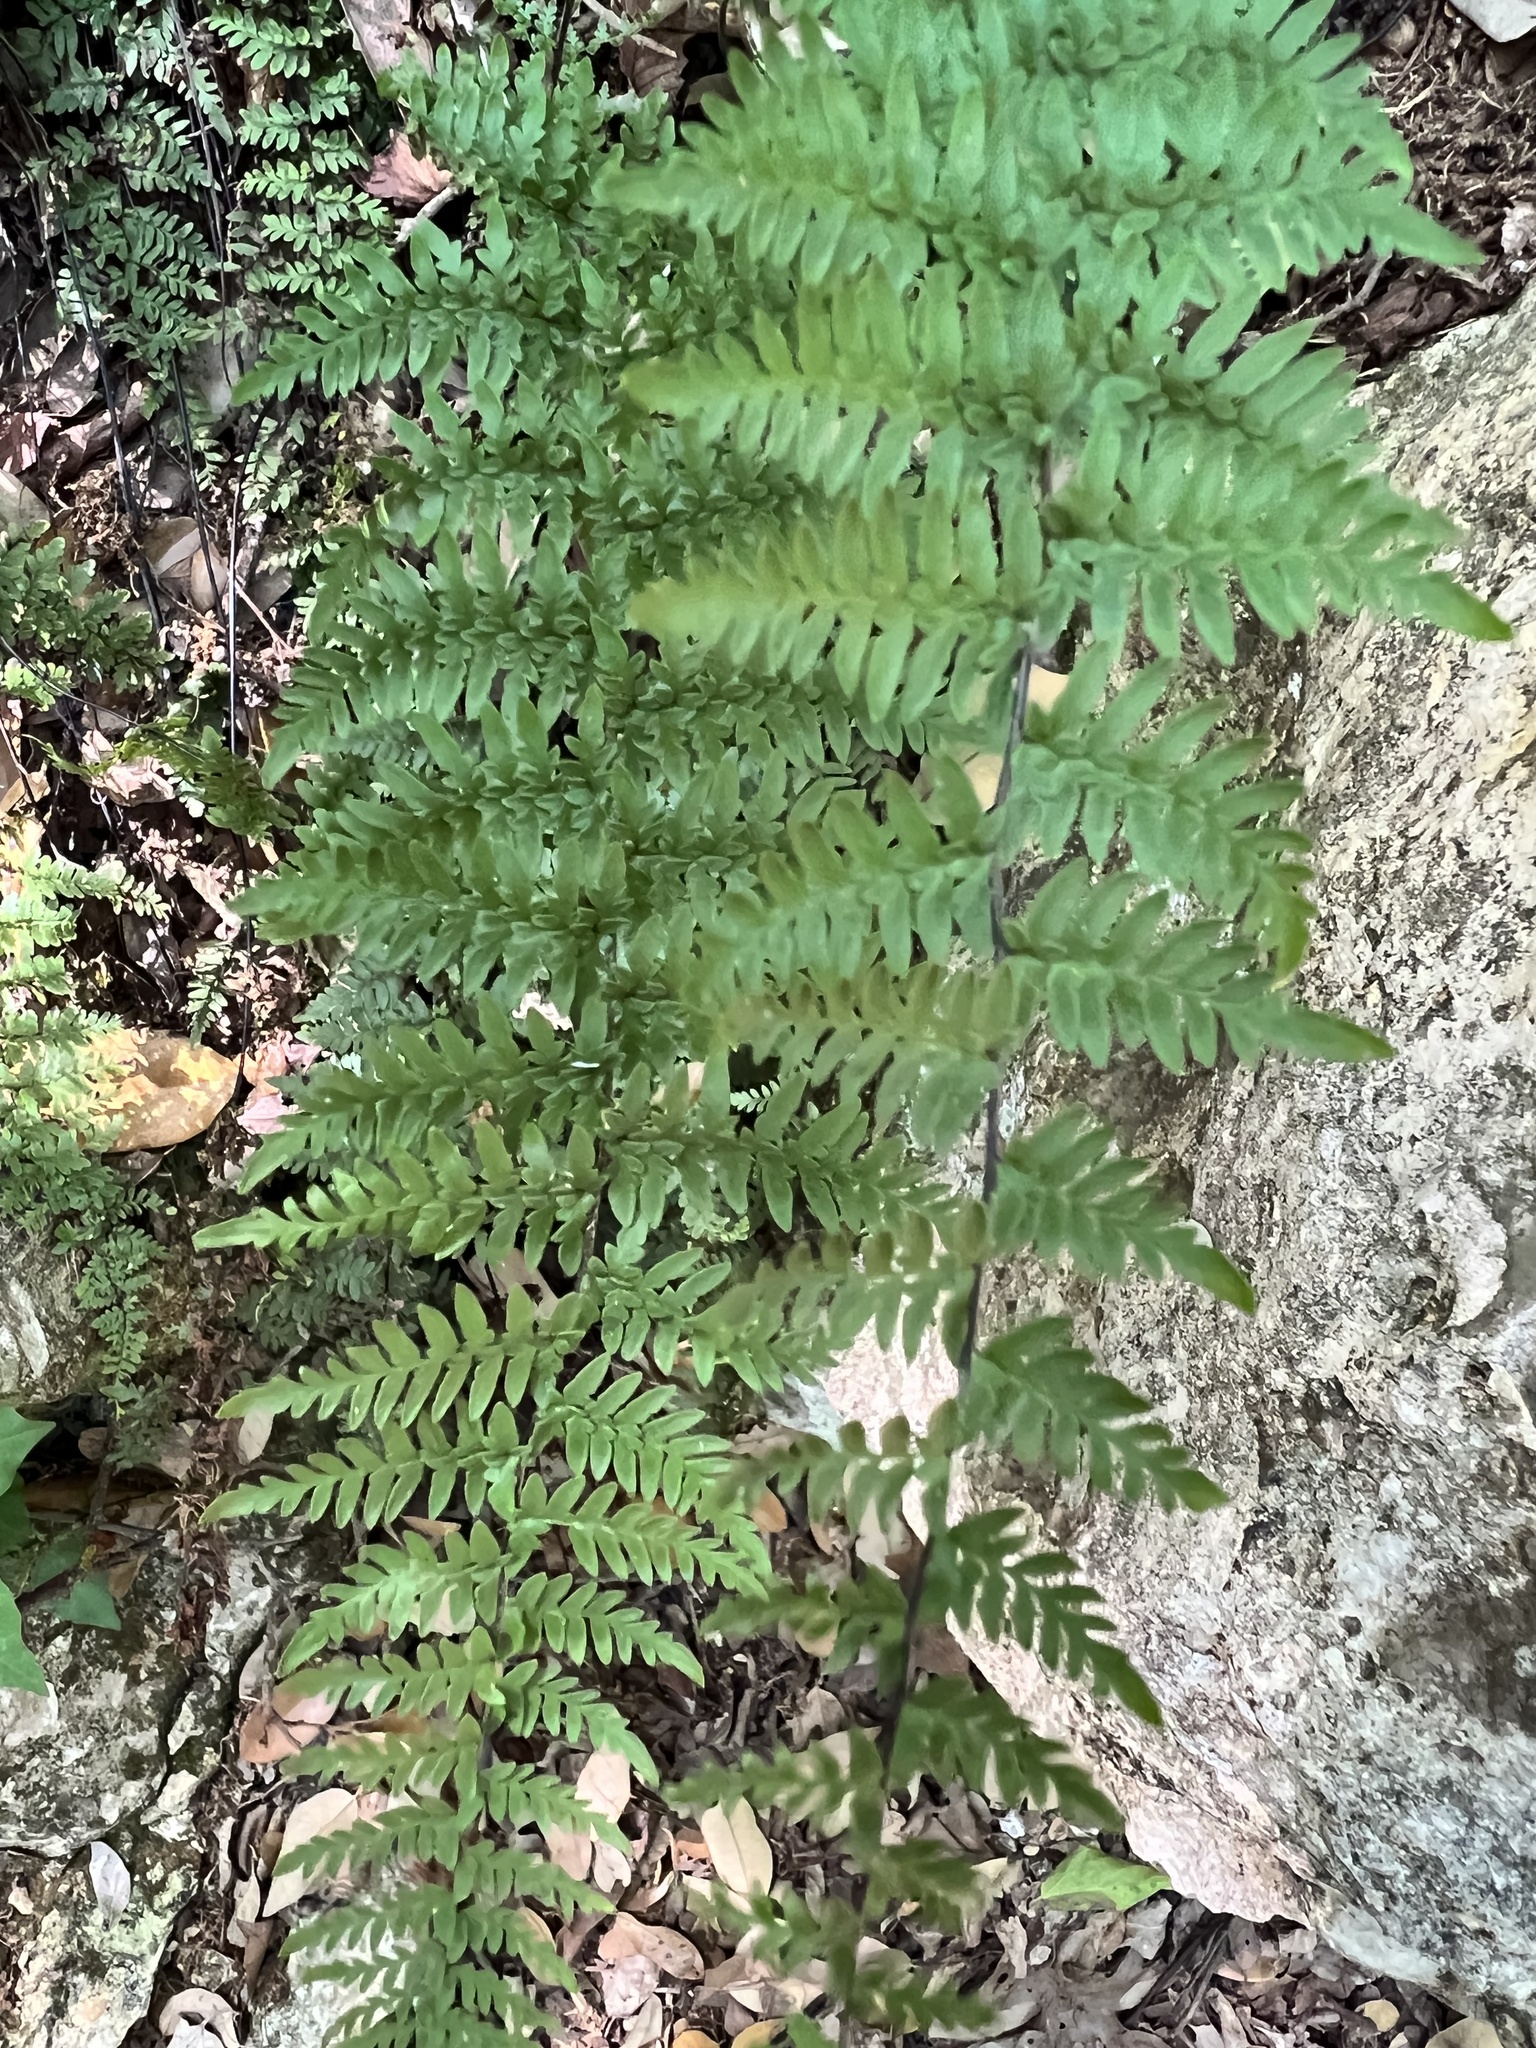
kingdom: Plantae
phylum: Tracheophyta
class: Polypodiopsida
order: Polypodiales
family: Pteridaceae
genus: Myriopteris
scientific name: Myriopteris alabamensis
